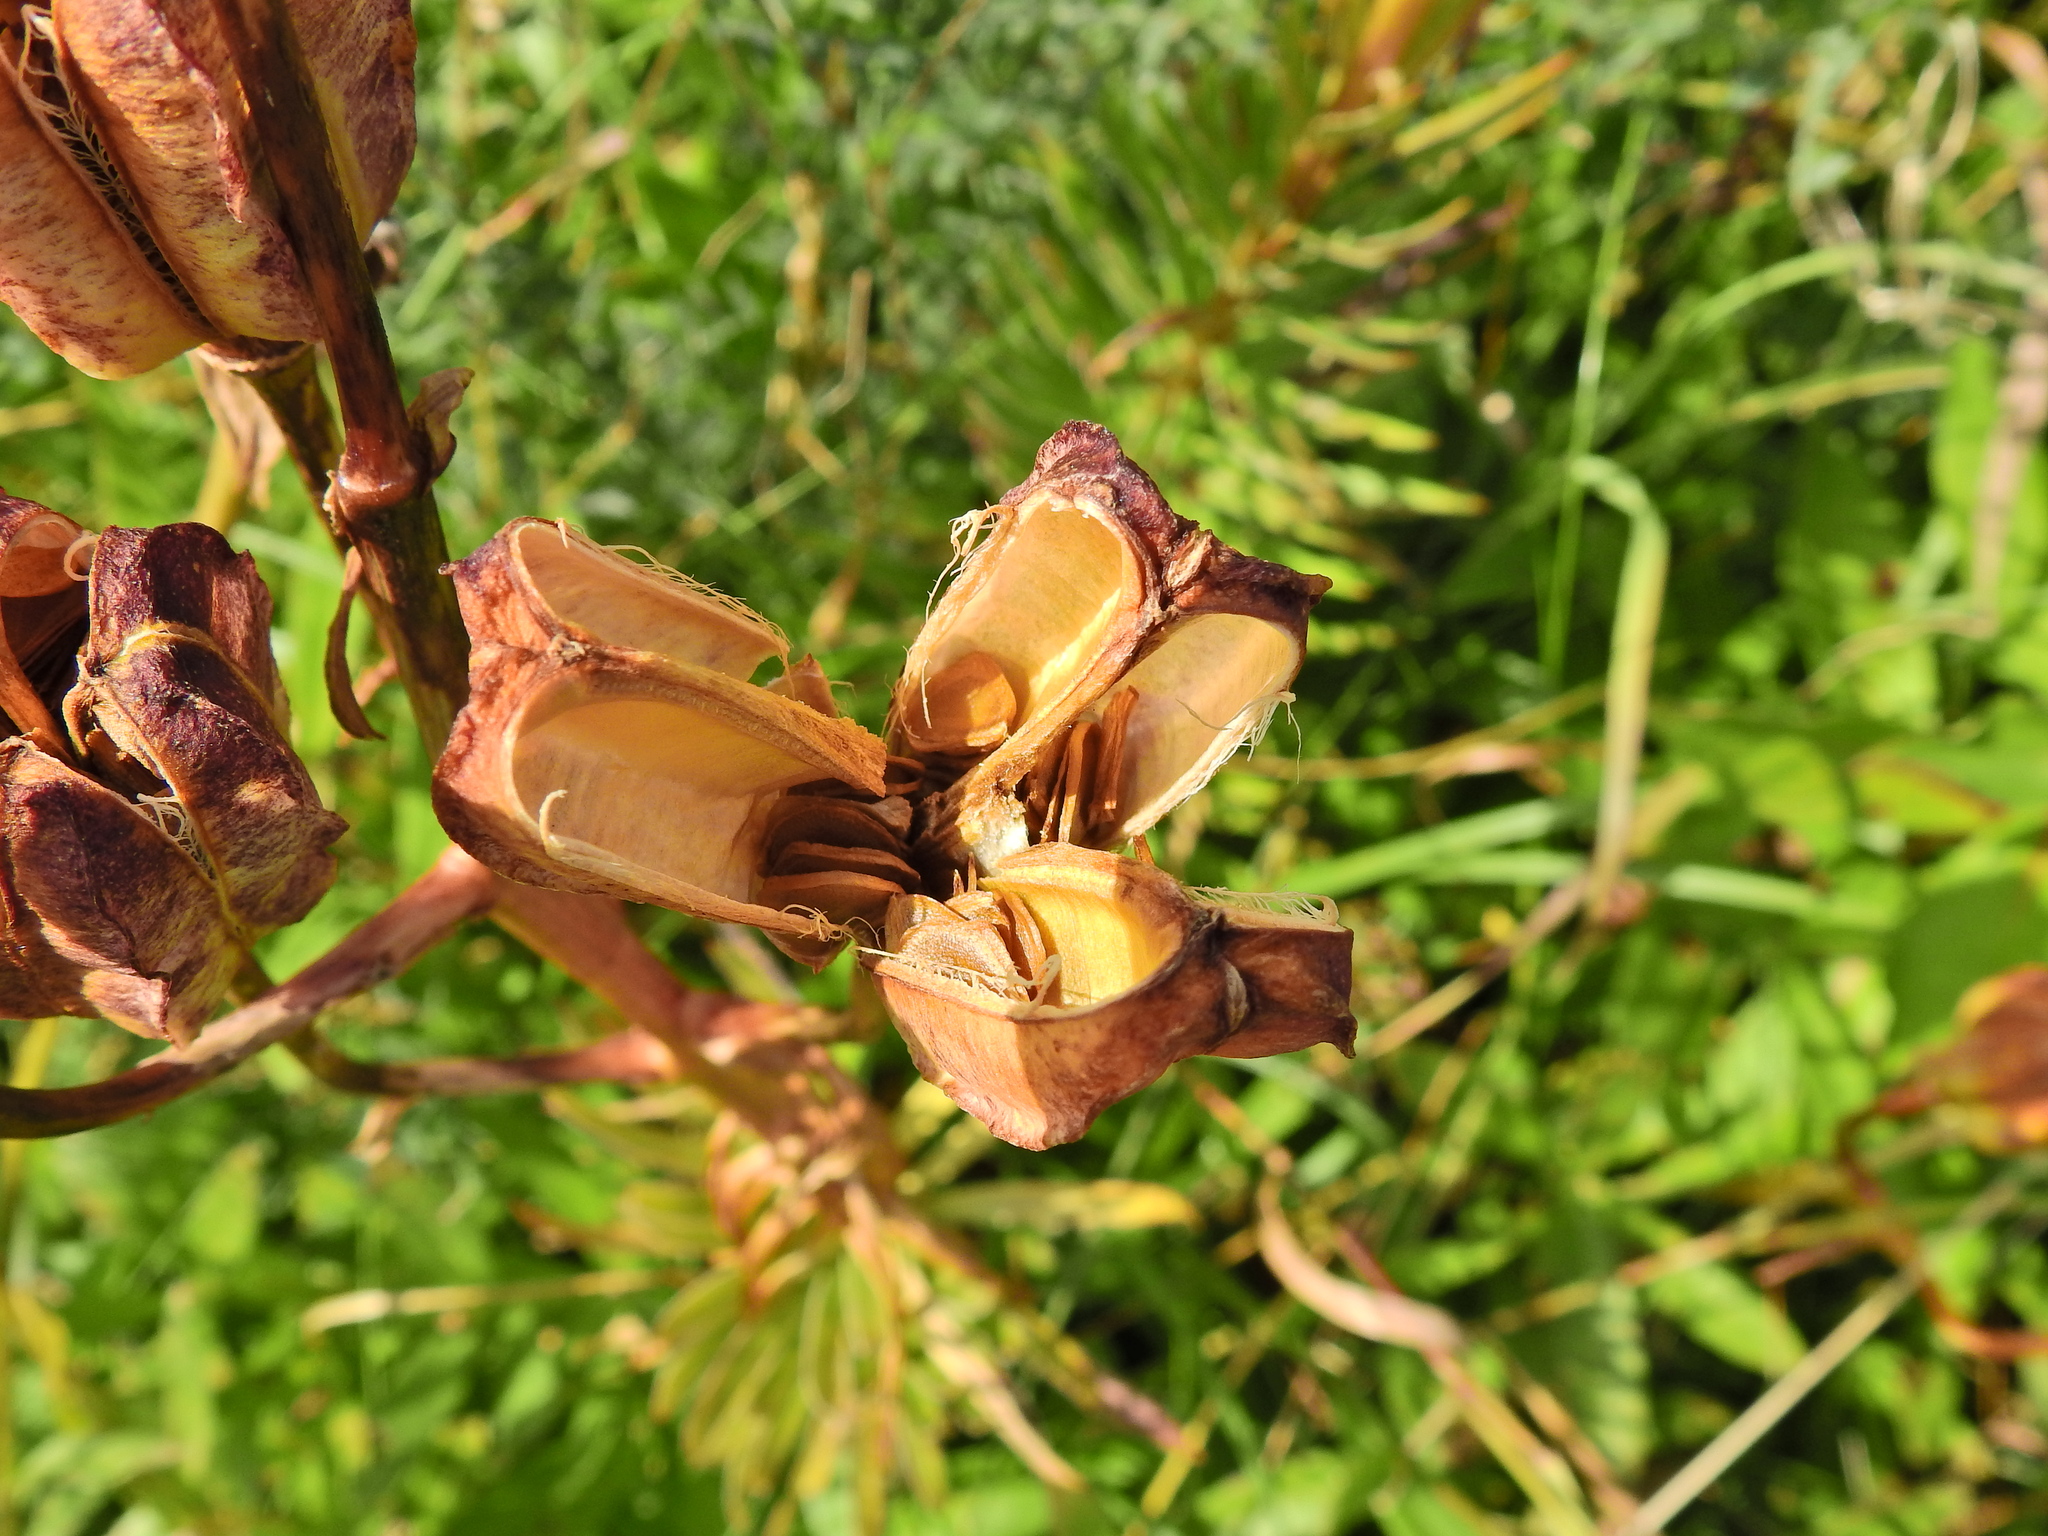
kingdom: Plantae
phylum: Tracheophyta
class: Liliopsida
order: Liliales
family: Liliaceae
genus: Lilium
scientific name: Lilium pyrenaicum
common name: Pyrenean lily
